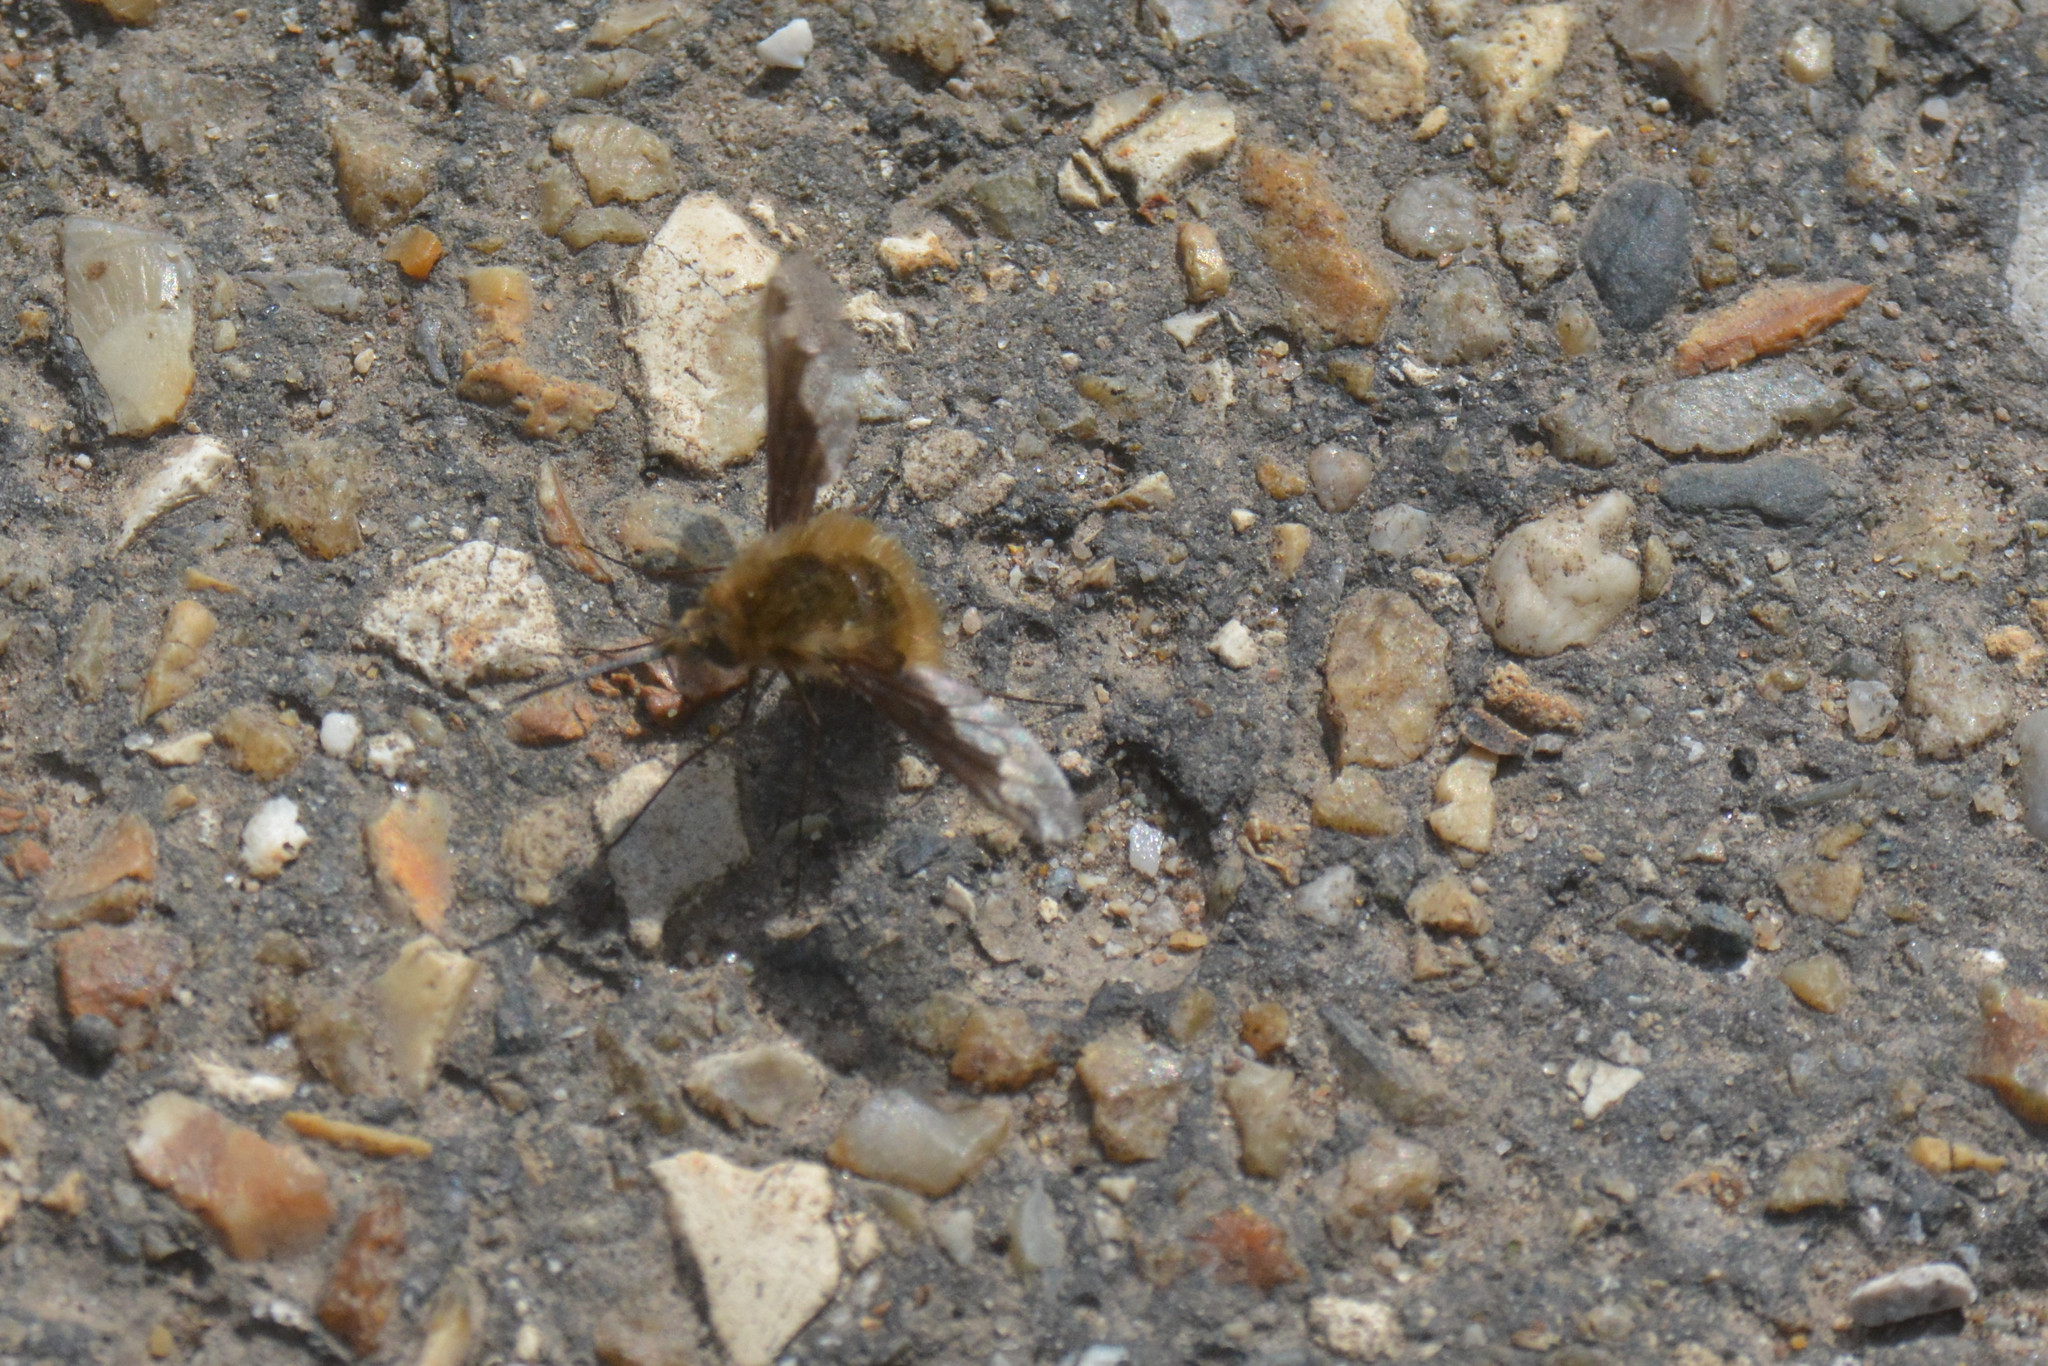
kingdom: Animalia
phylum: Arthropoda
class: Insecta
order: Diptera
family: Bombyliidae
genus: Bombylius
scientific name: Bombylius major
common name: Bee fly
